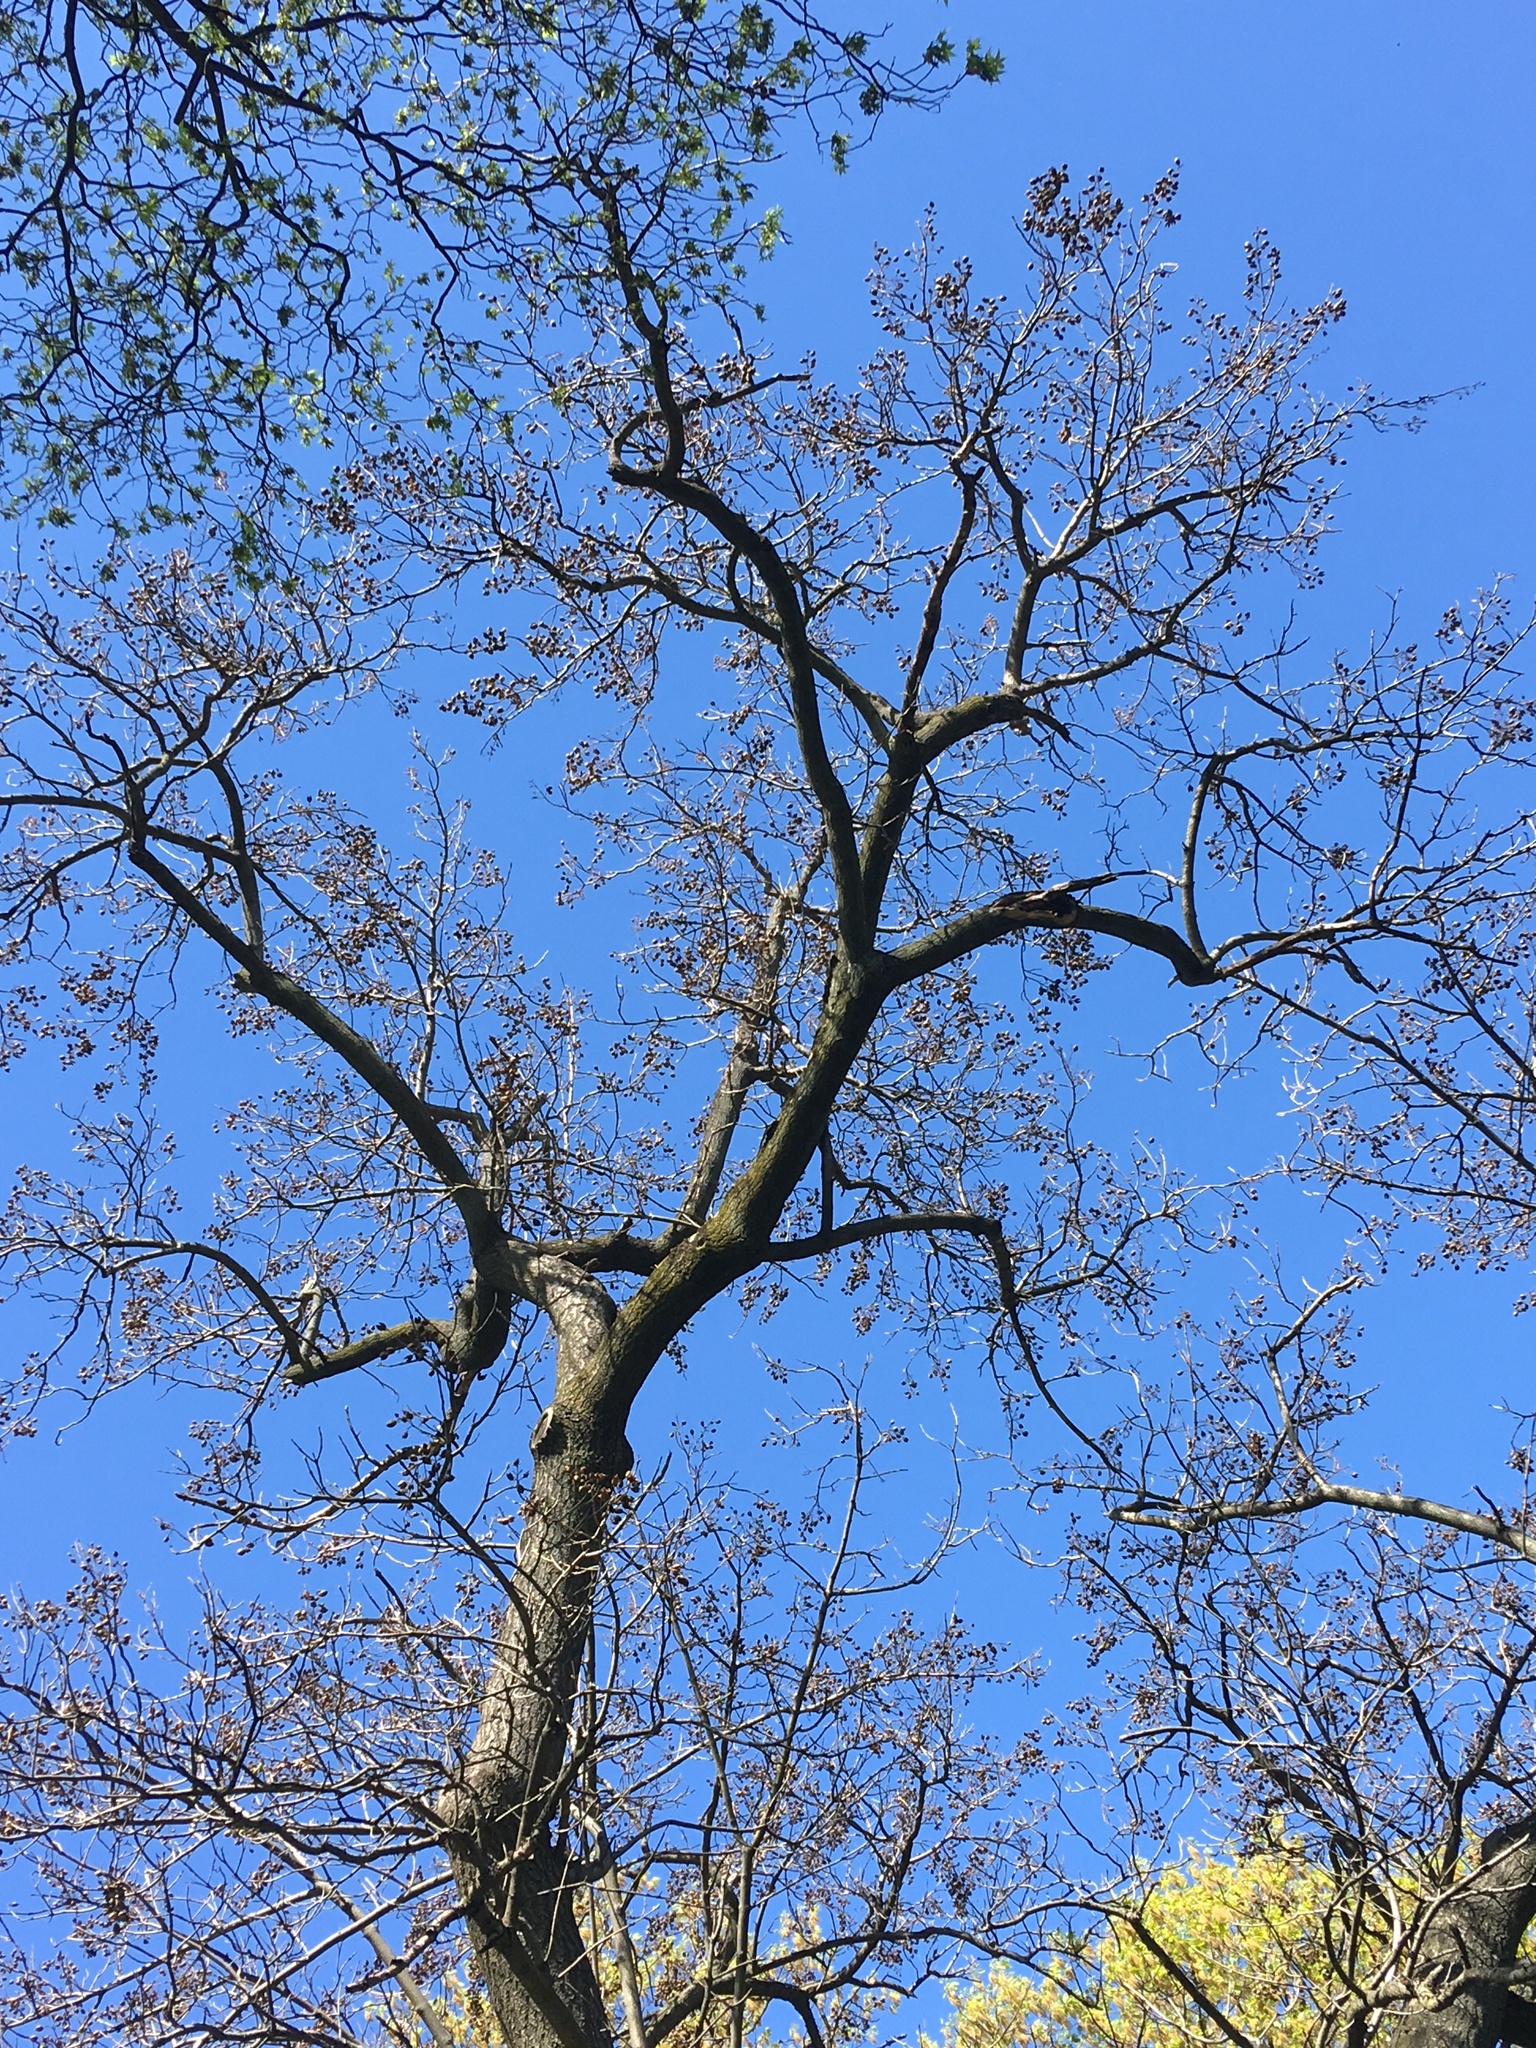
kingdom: Plantae
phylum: Tracheophyta
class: Magnoliopsida
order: Lamiales
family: Paulowniaceae
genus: Paulownia
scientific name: Paulownia tomentosa
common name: Foxglove-tree
